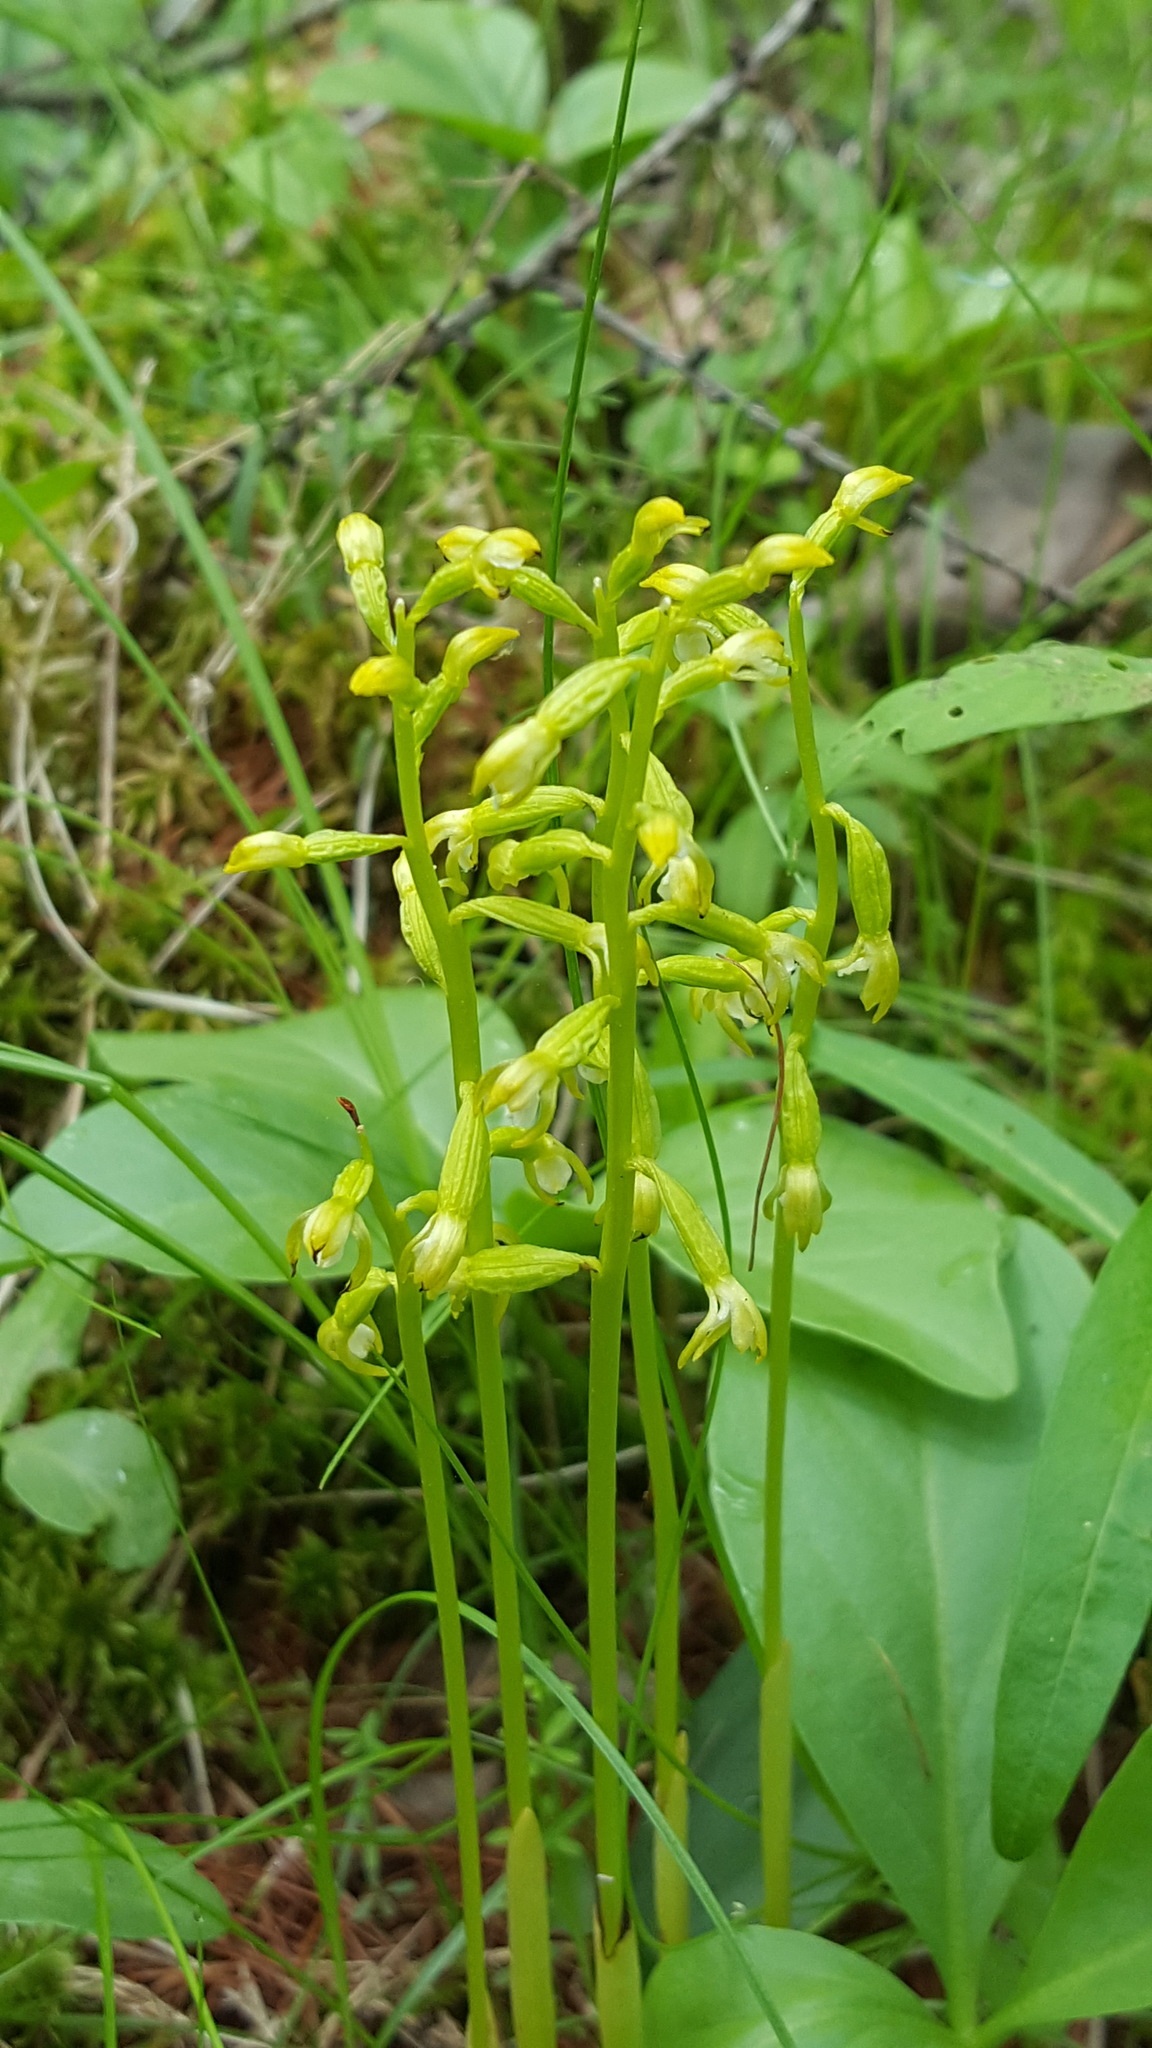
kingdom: Plantae
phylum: Tracheophyta
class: Liliopsida
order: Asparagales
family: Orchidaceae
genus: Corallorhiza
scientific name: Corallorhiza trifida
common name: Yellow coralroot
